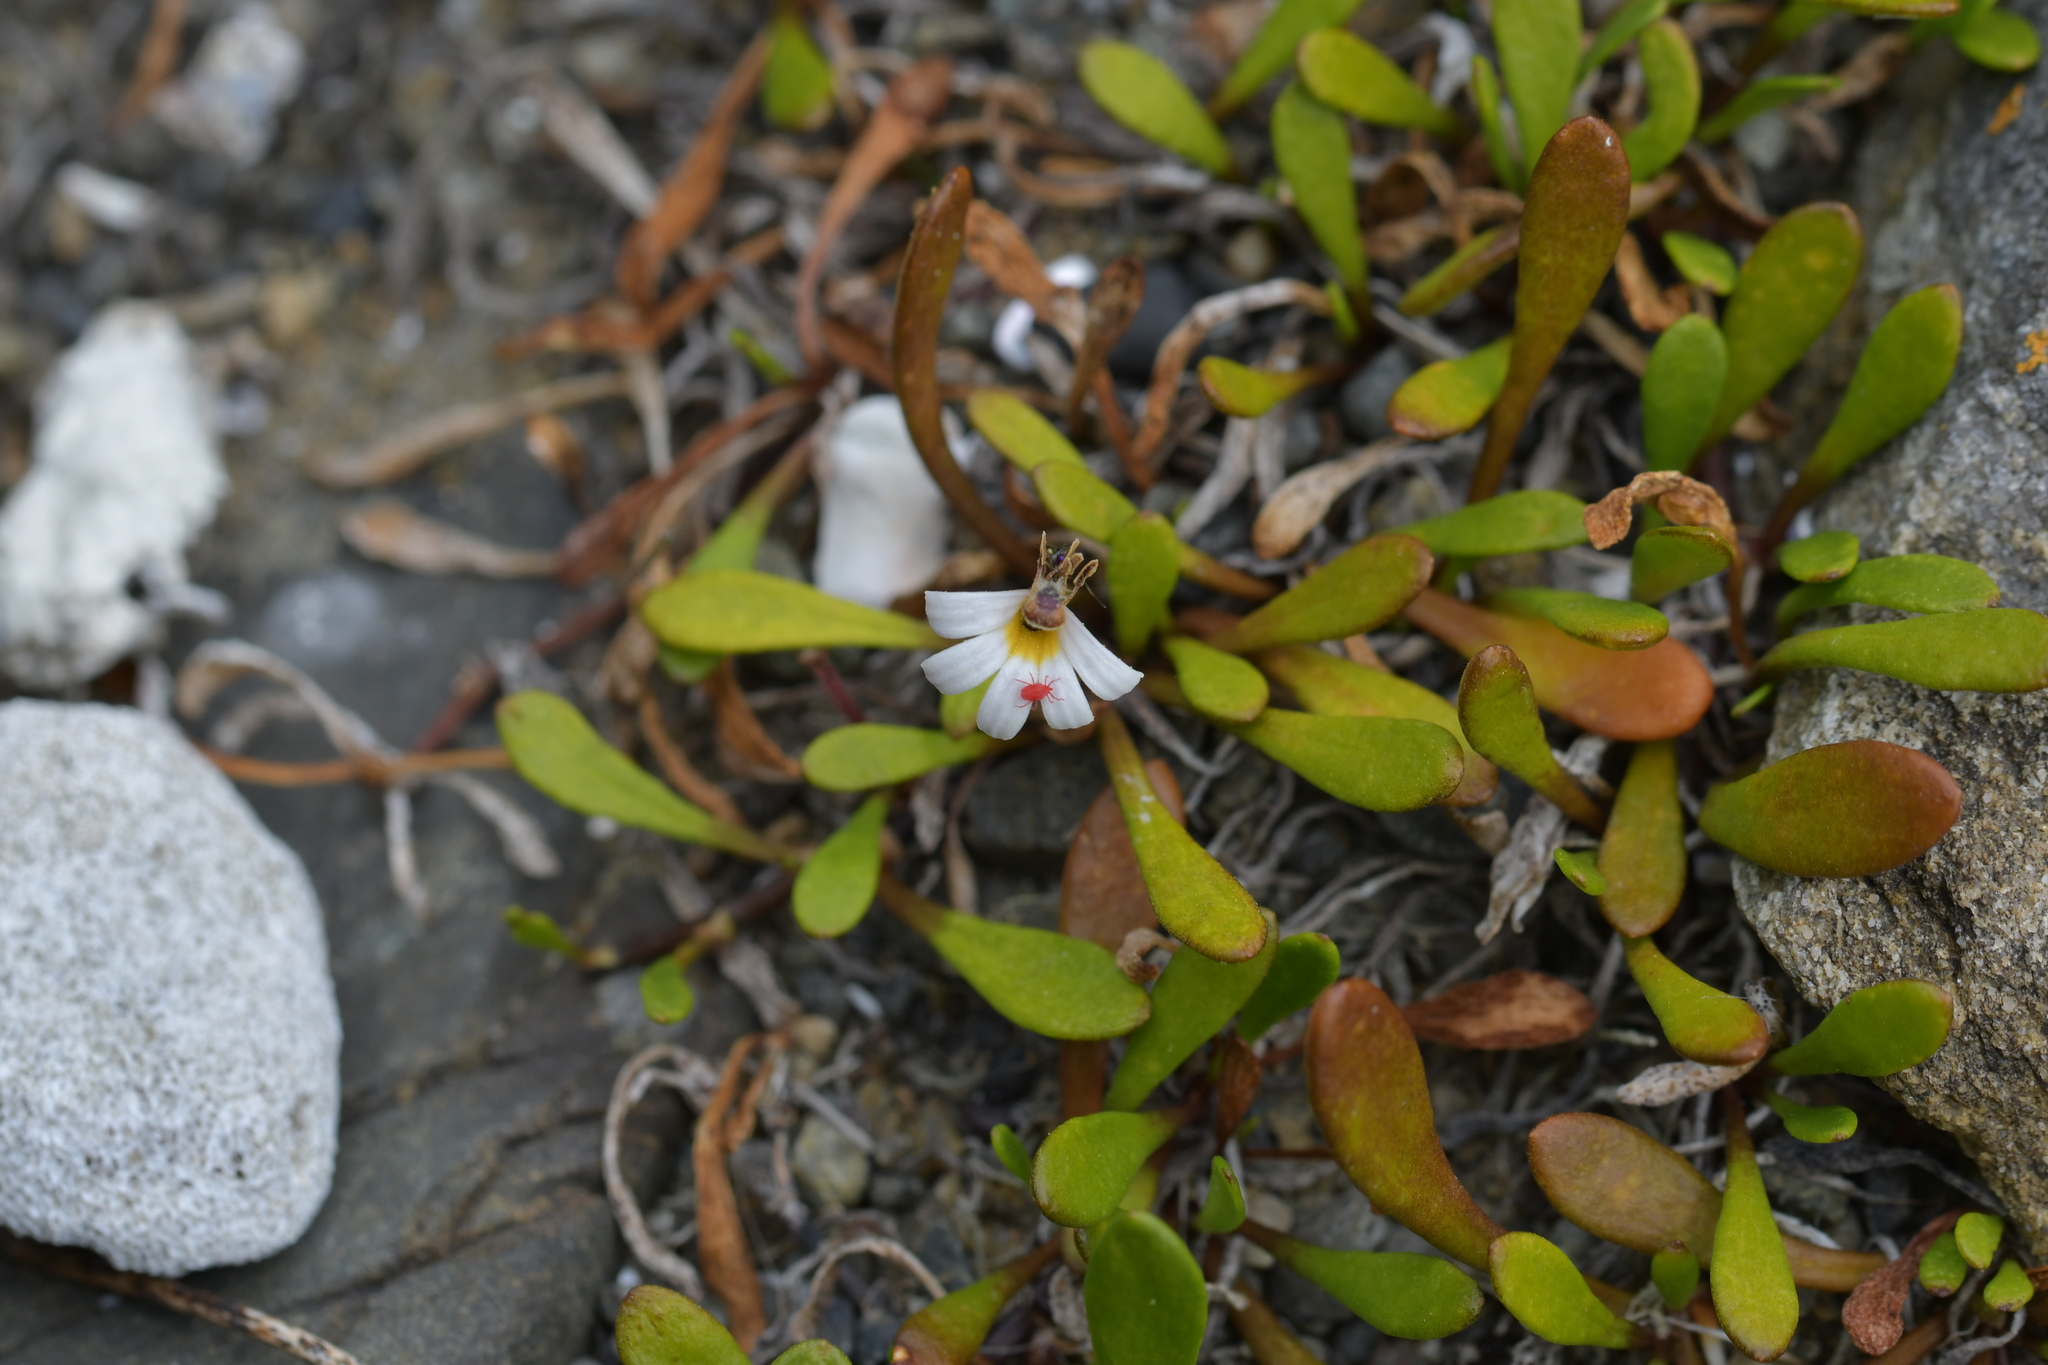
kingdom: Plantae
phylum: Tracheophyta
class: Magnoliopsida
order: Asterales
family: Goodeniaceae
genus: Goodenia
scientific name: Goodenia radicans
